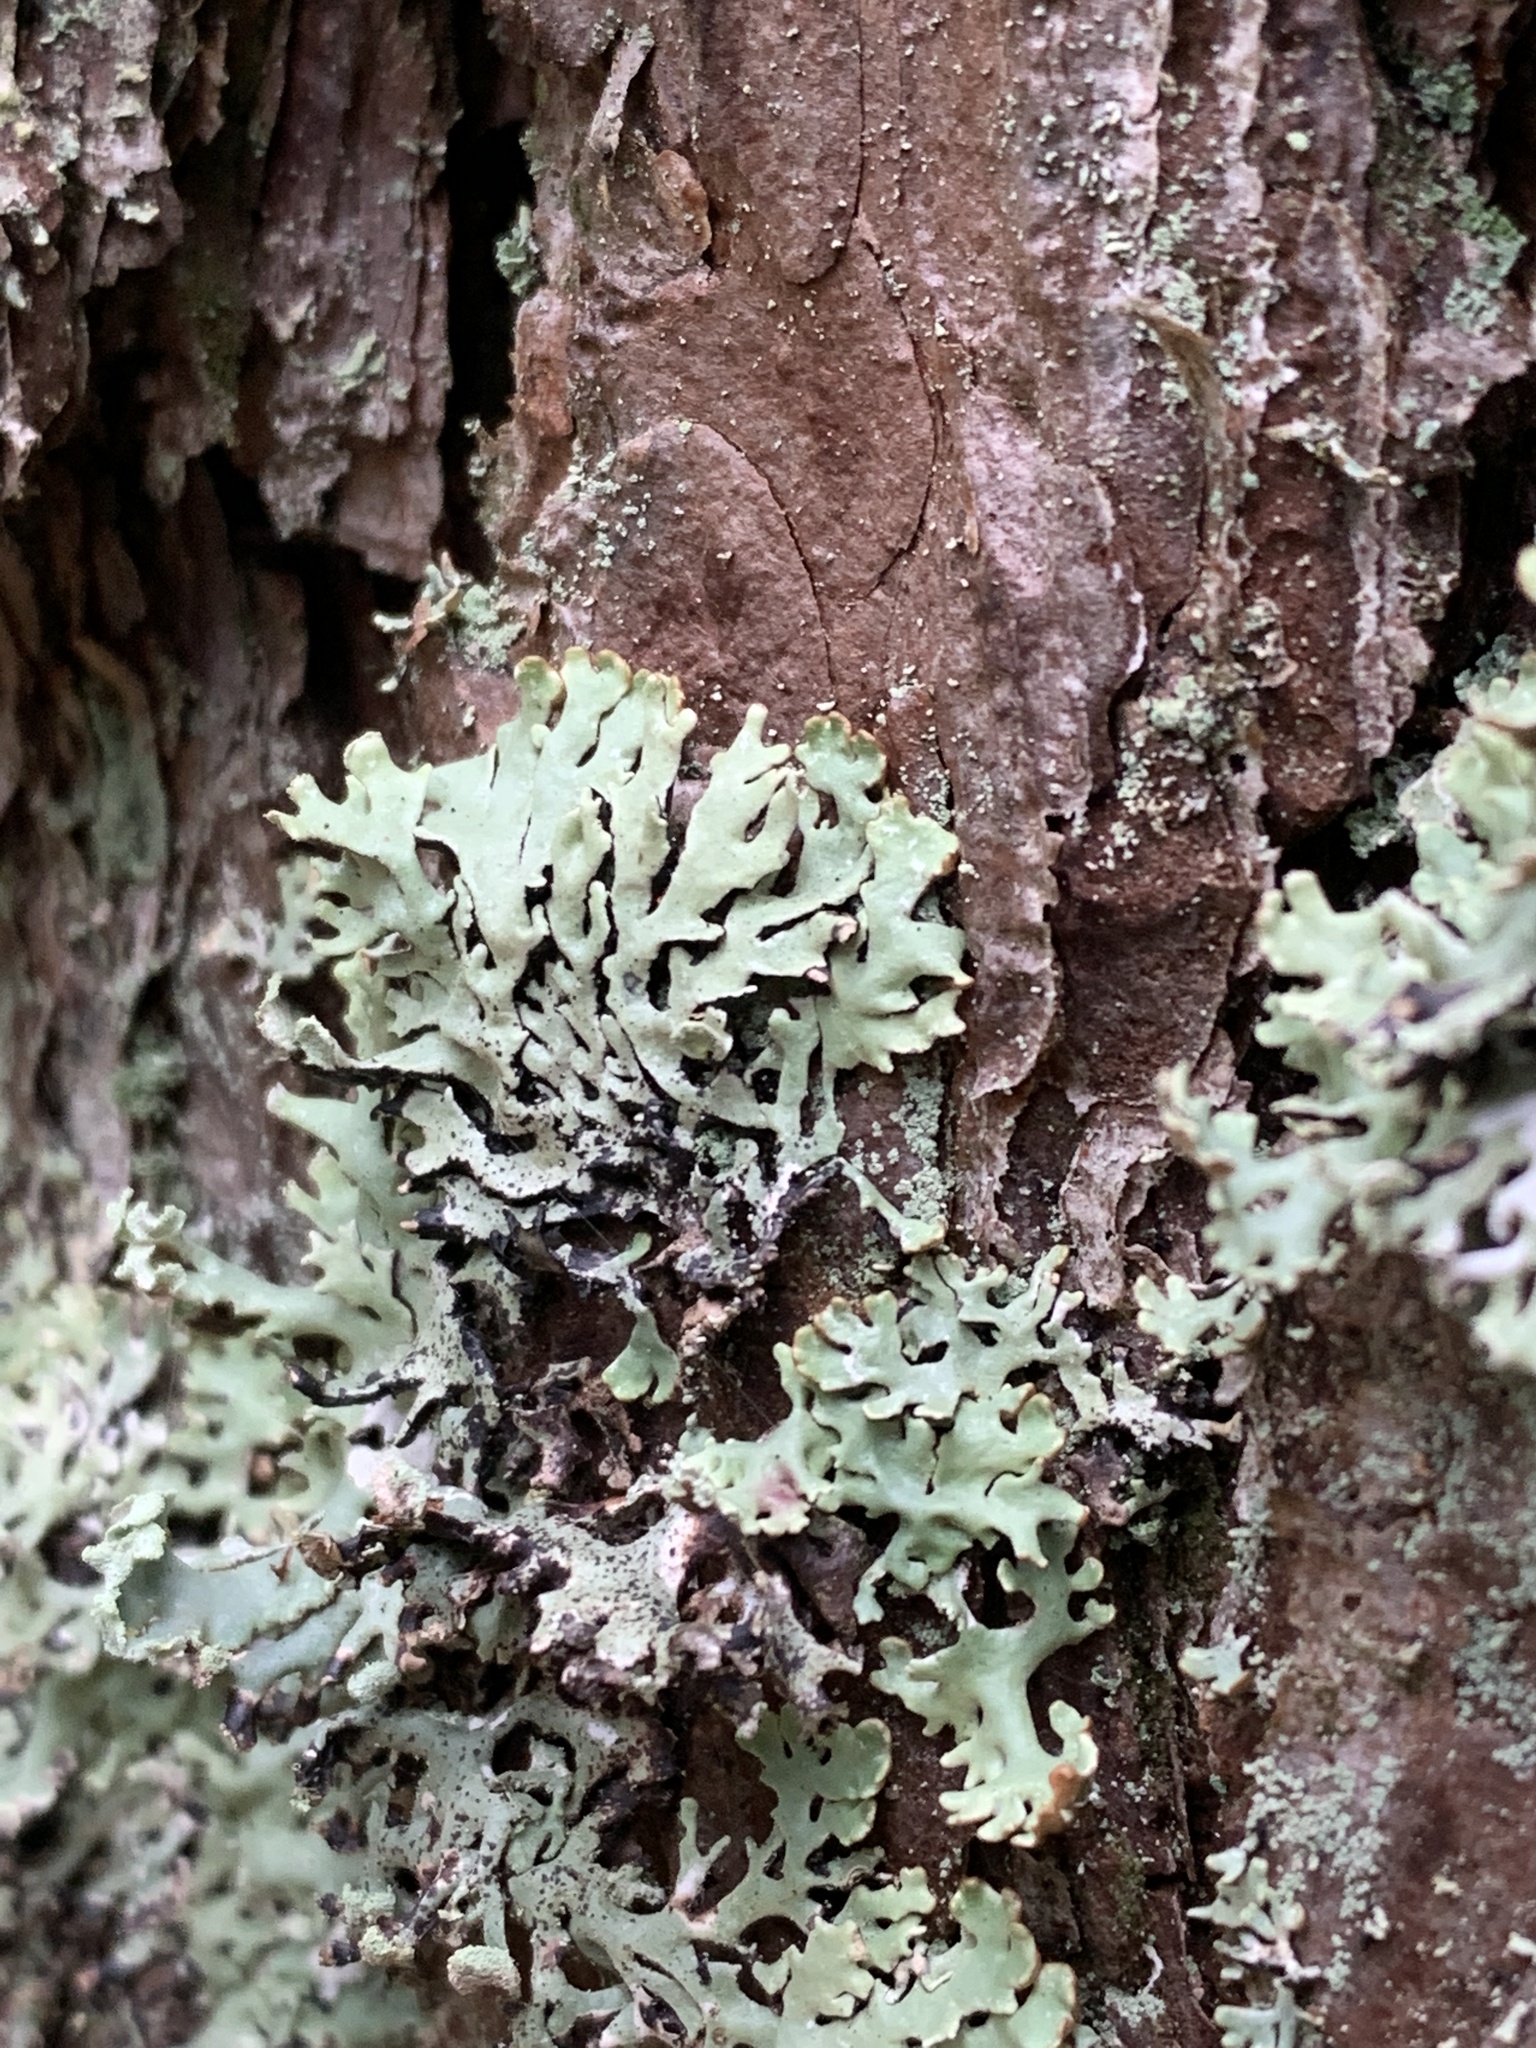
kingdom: Fungi
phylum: Ascomycota
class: Lecanoromycetes
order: Lecanorales
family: Parmeliaceae
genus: Hypogymnia
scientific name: Hypogymnia physodes
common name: Dark crottle
